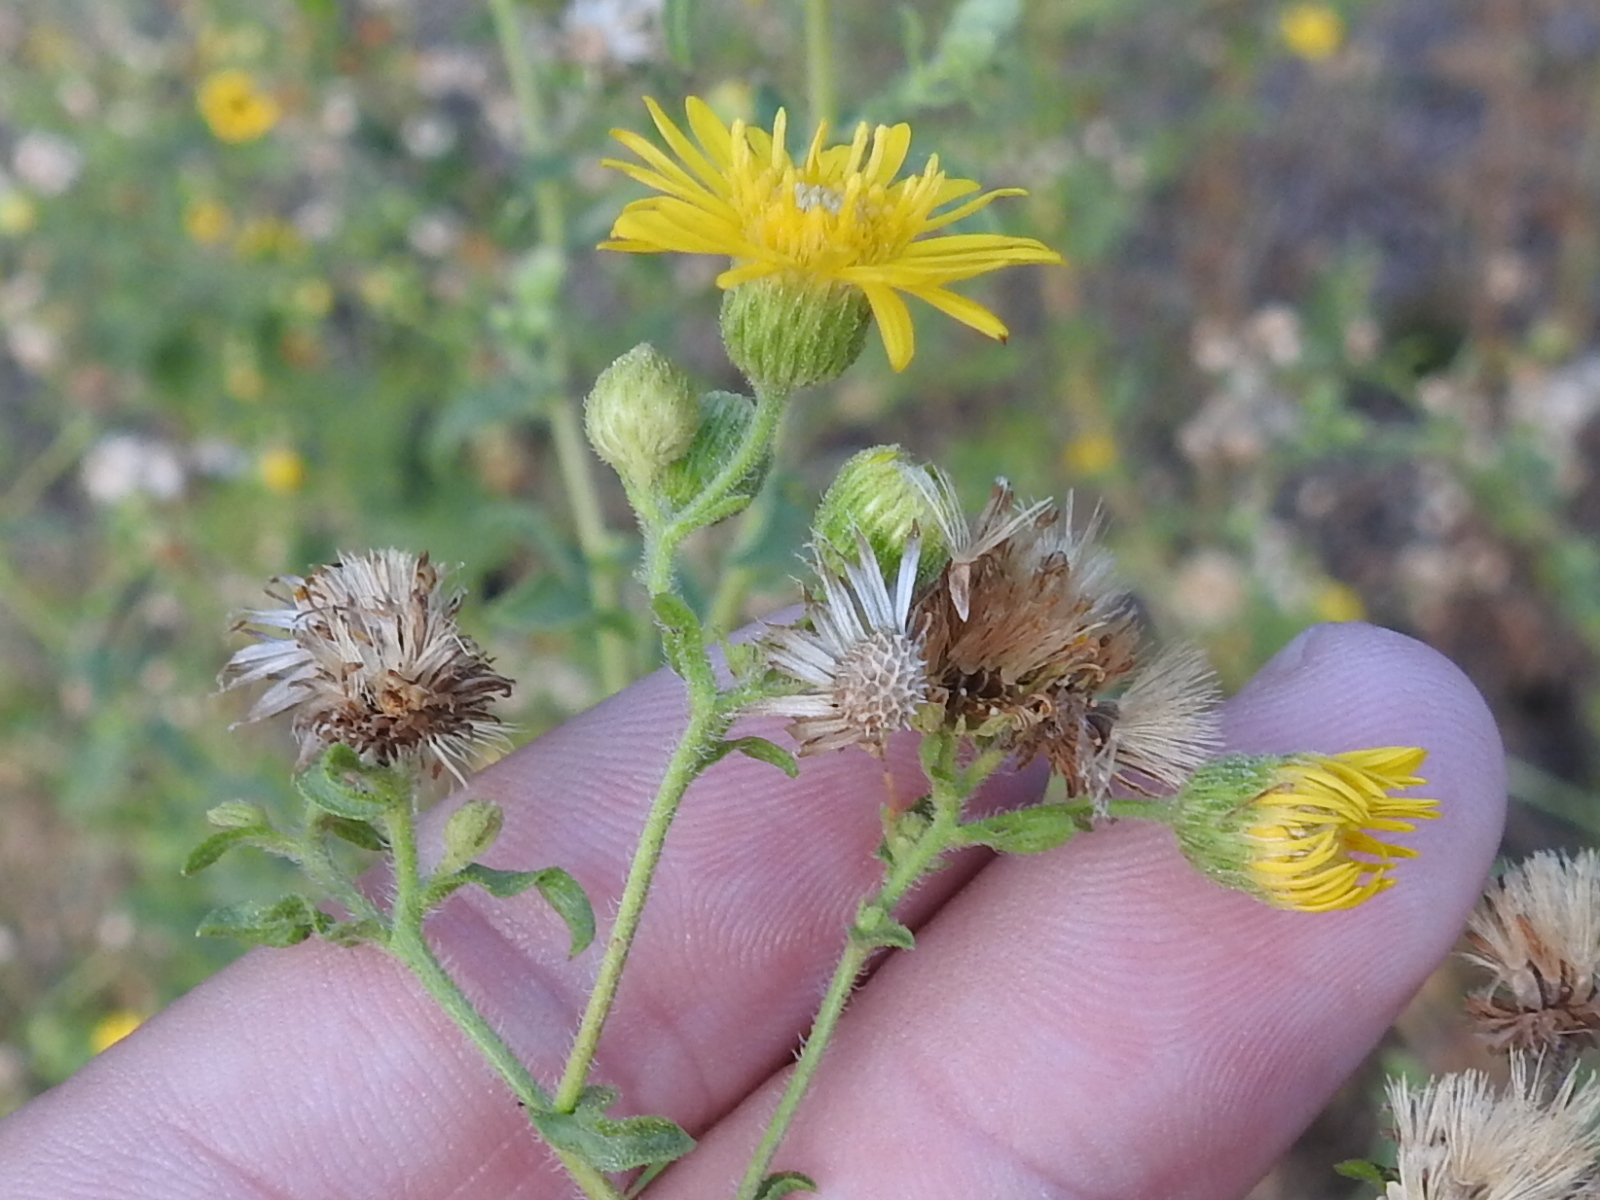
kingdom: Plantae
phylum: Tracheophyta
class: Magnoliopsida
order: Asterales
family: Asteraceae
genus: Heterotheca
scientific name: Heterotheca subaxillaris
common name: Camphorweed
